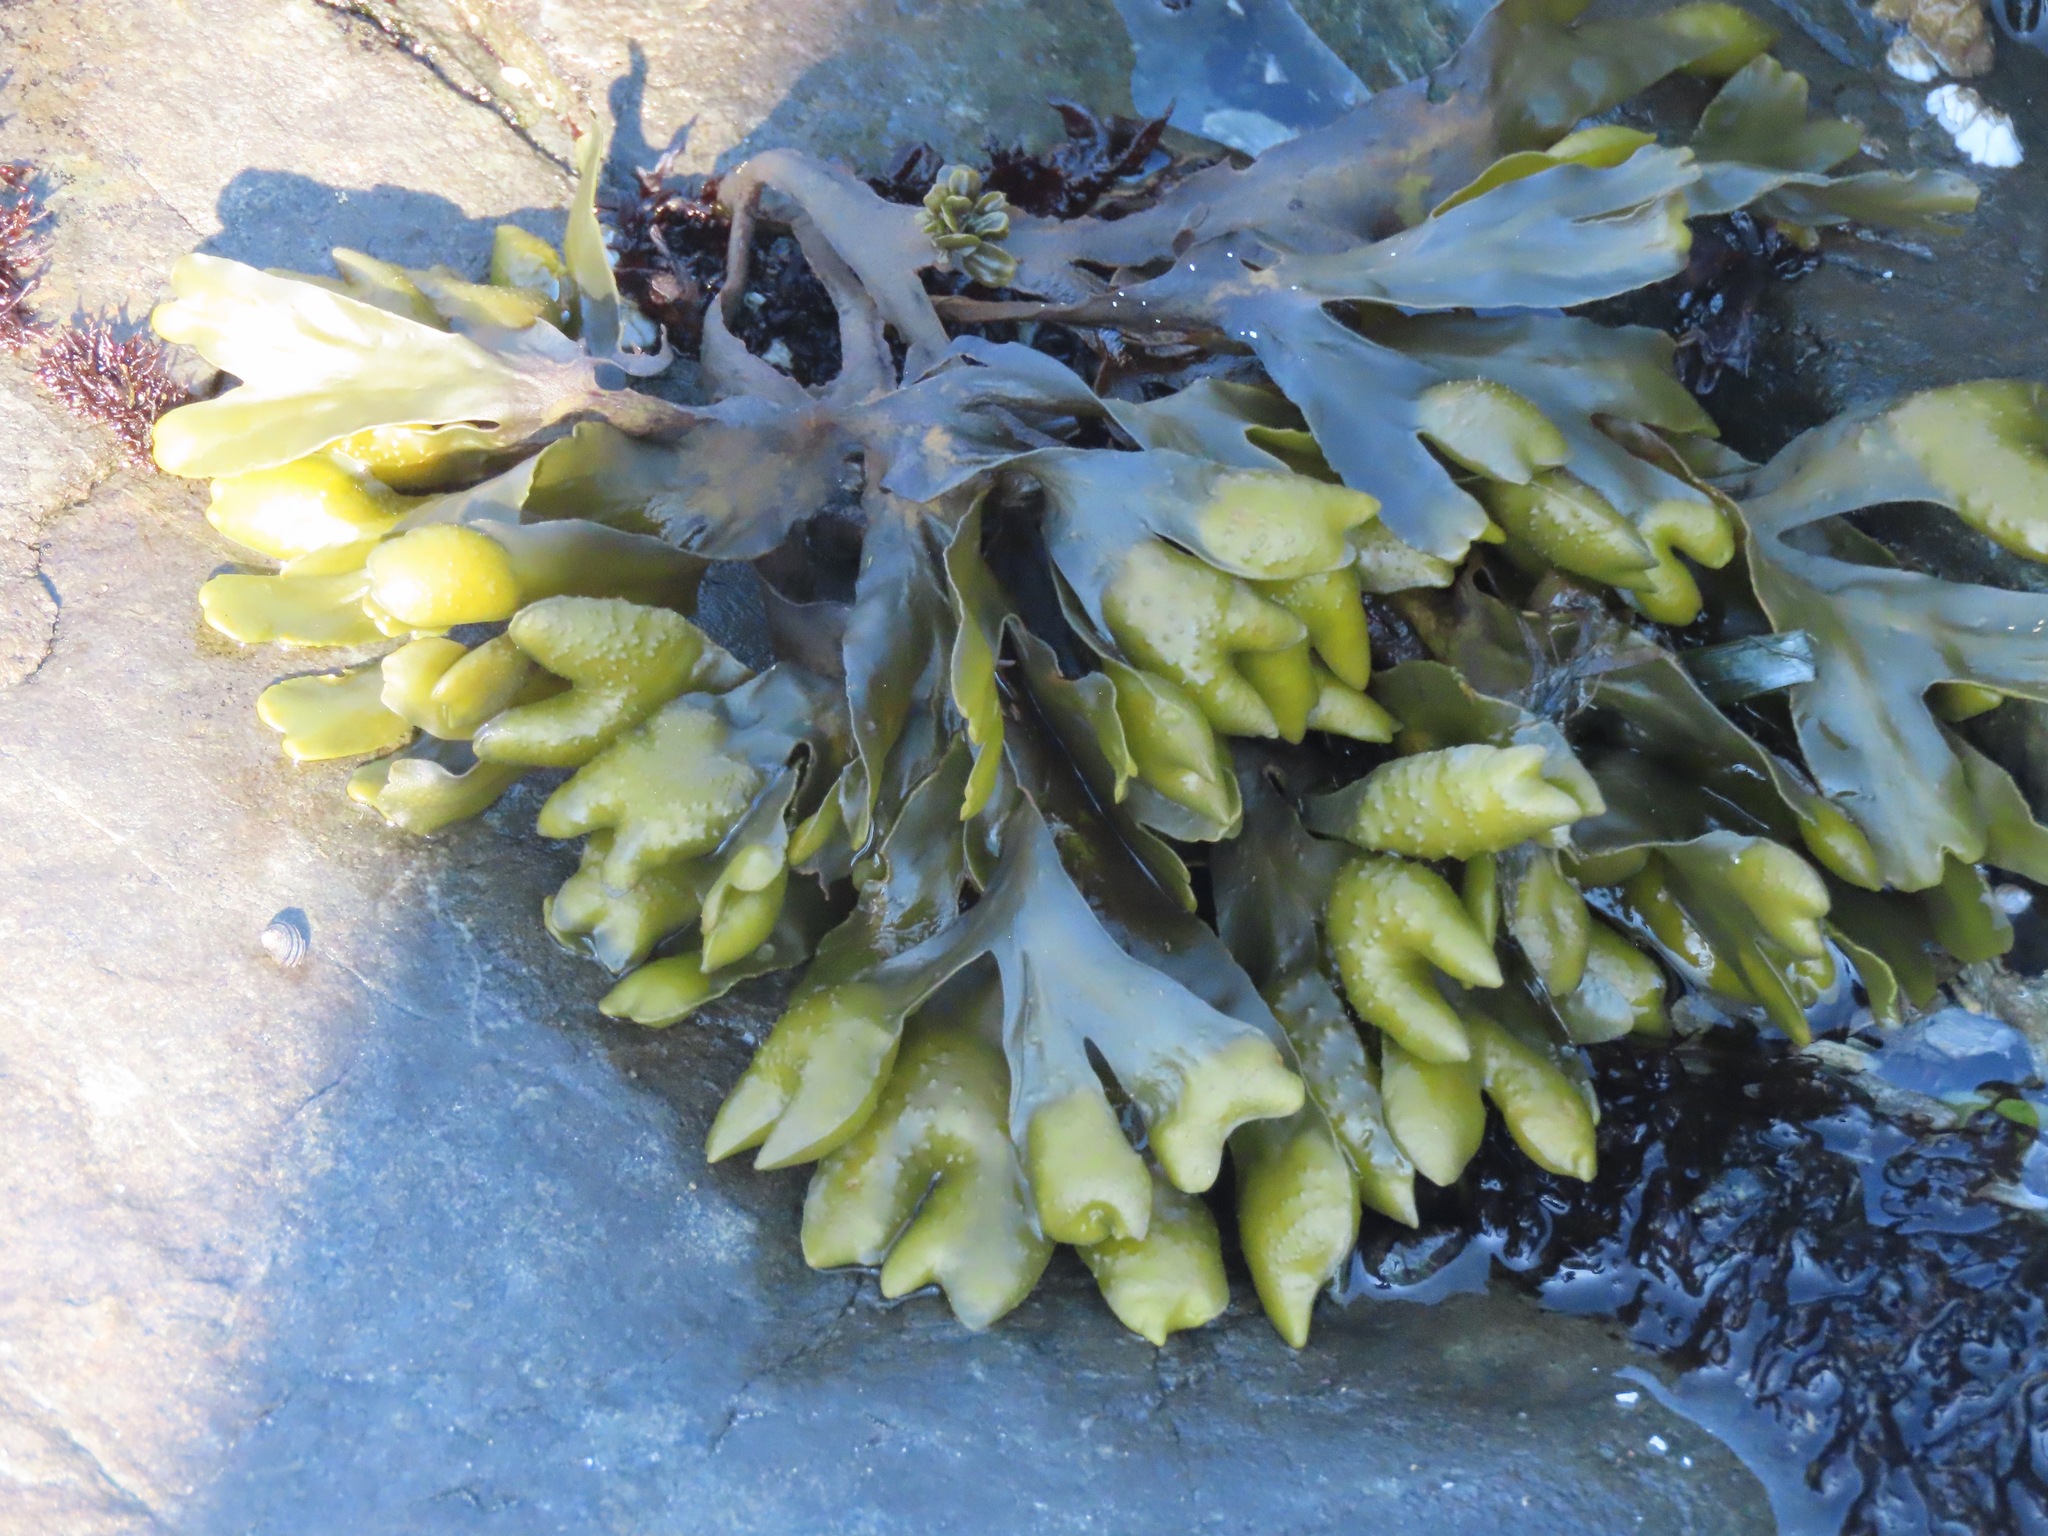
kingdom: Chromista
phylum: Ochrophyta
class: Phaeophyceae
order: Fucales
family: Fucaceae
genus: Fucus
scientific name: Fucus distichus
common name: Rockweed
